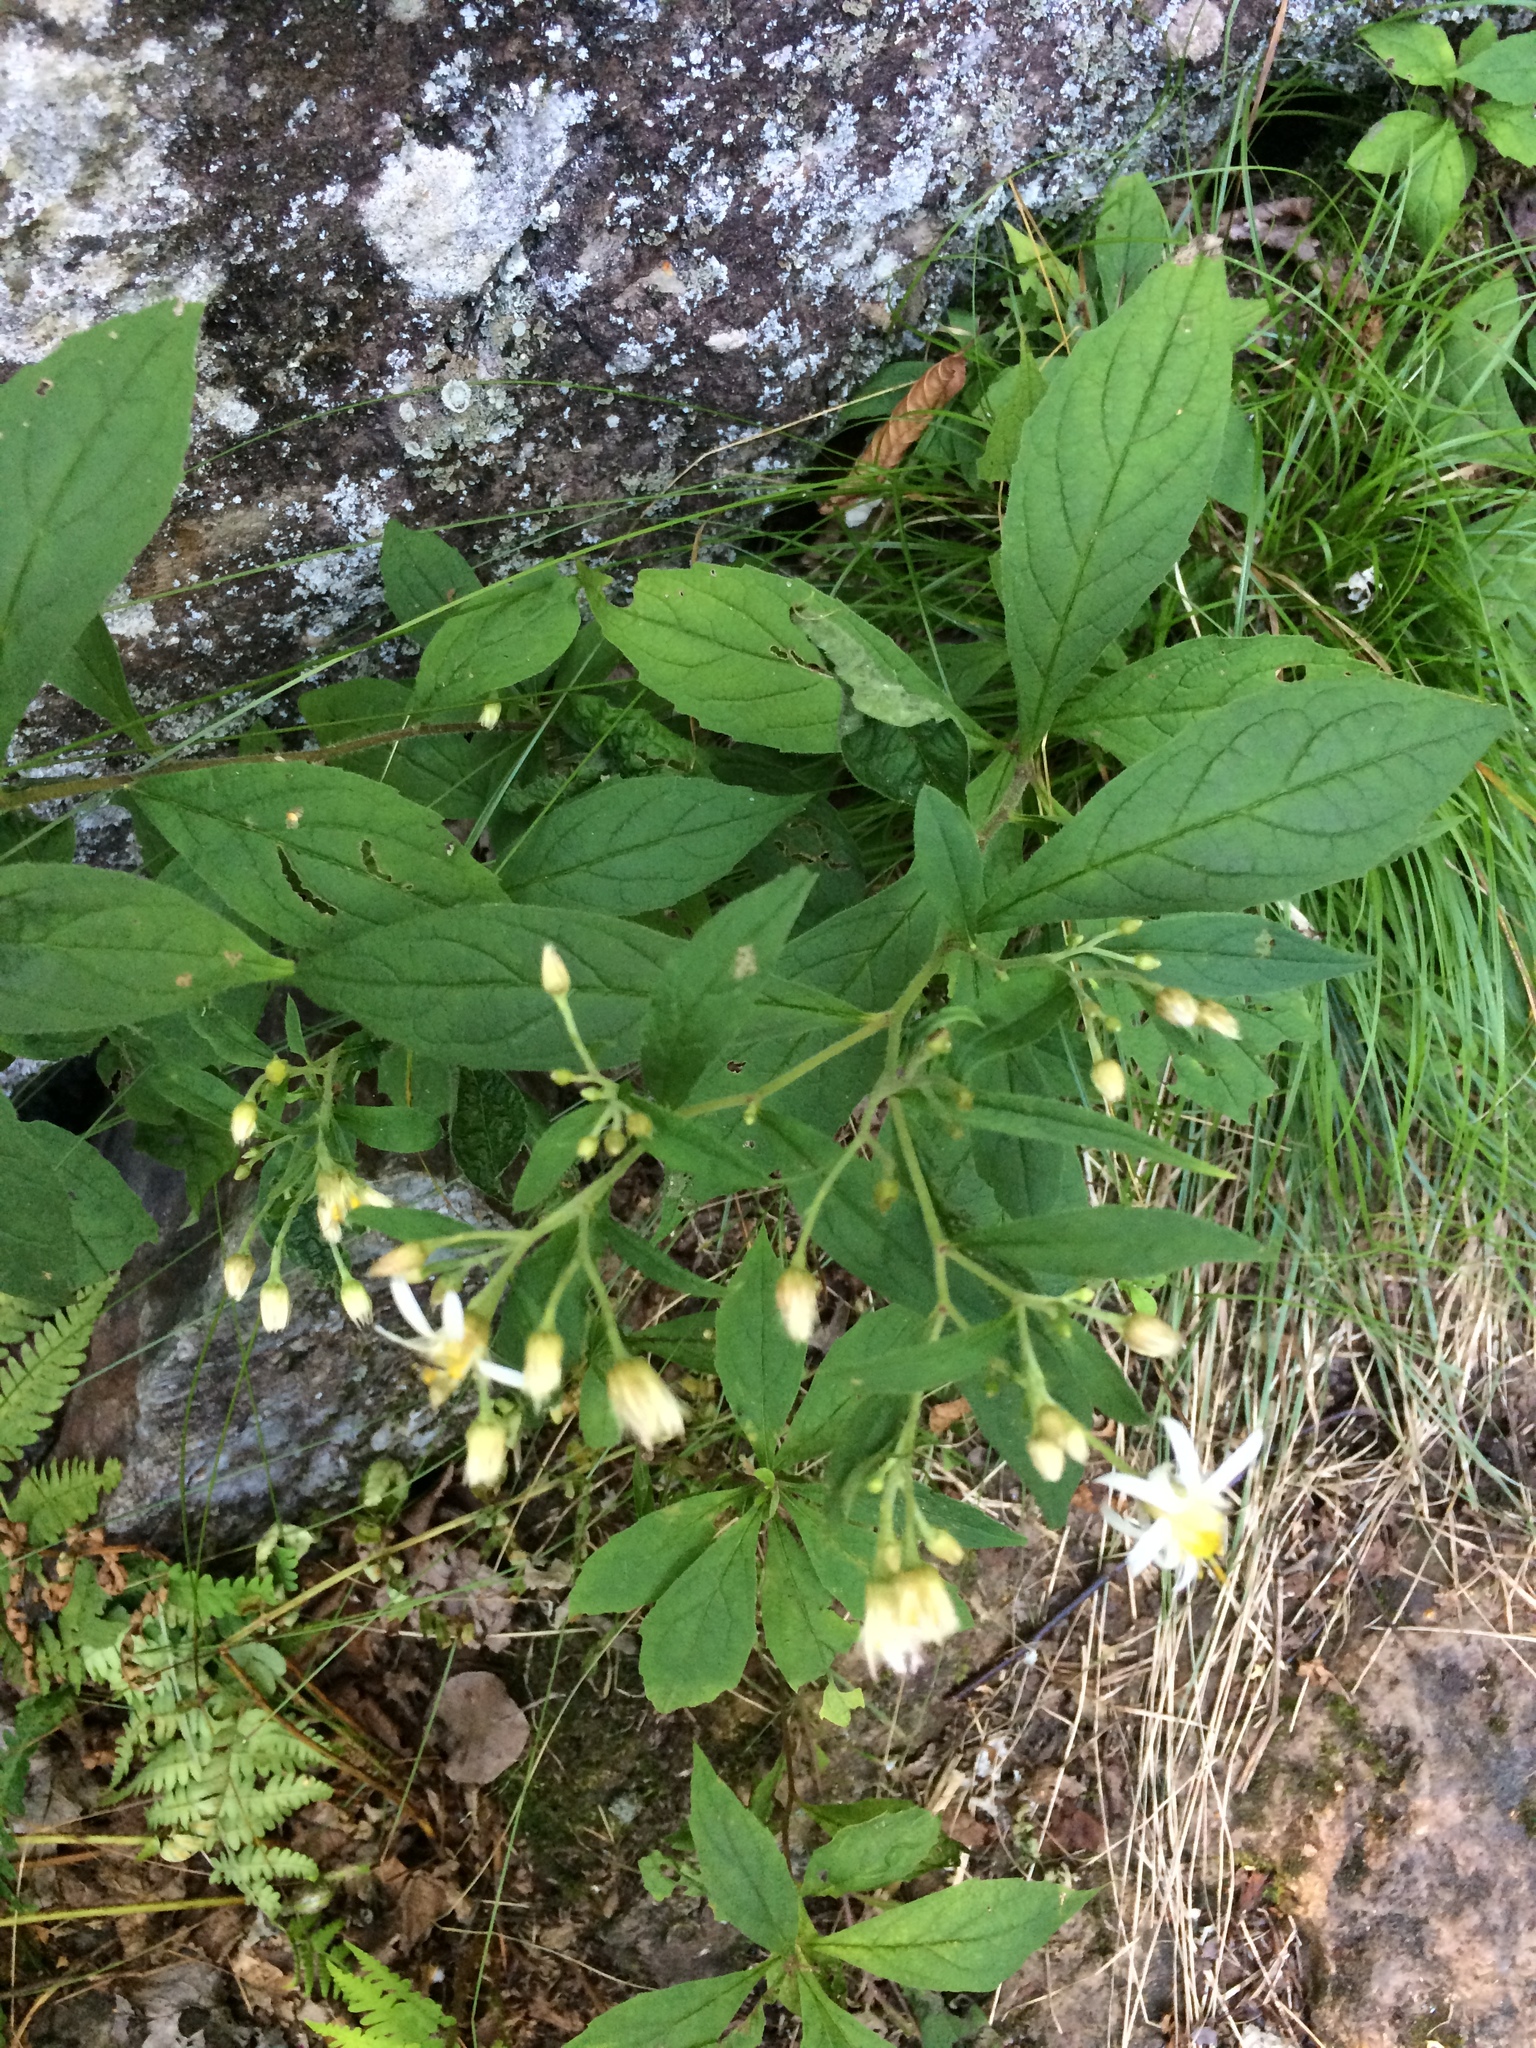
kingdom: Plantae
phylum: Tracheophyta
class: Magnoliopsida
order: Asterales
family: Asteraceae
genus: Oclemena
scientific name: Oclemena acuminata
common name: Mountain aster
